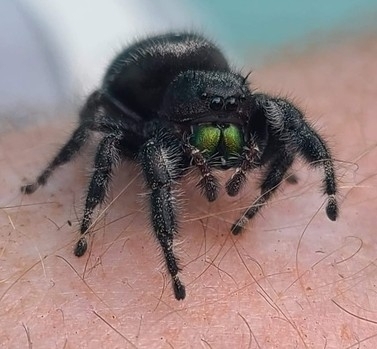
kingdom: Animalia
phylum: Arthropoda
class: Arachnida
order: Araneae
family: Salticidae
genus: Phidippus
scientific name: Phidippus audax
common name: Bold jumper
